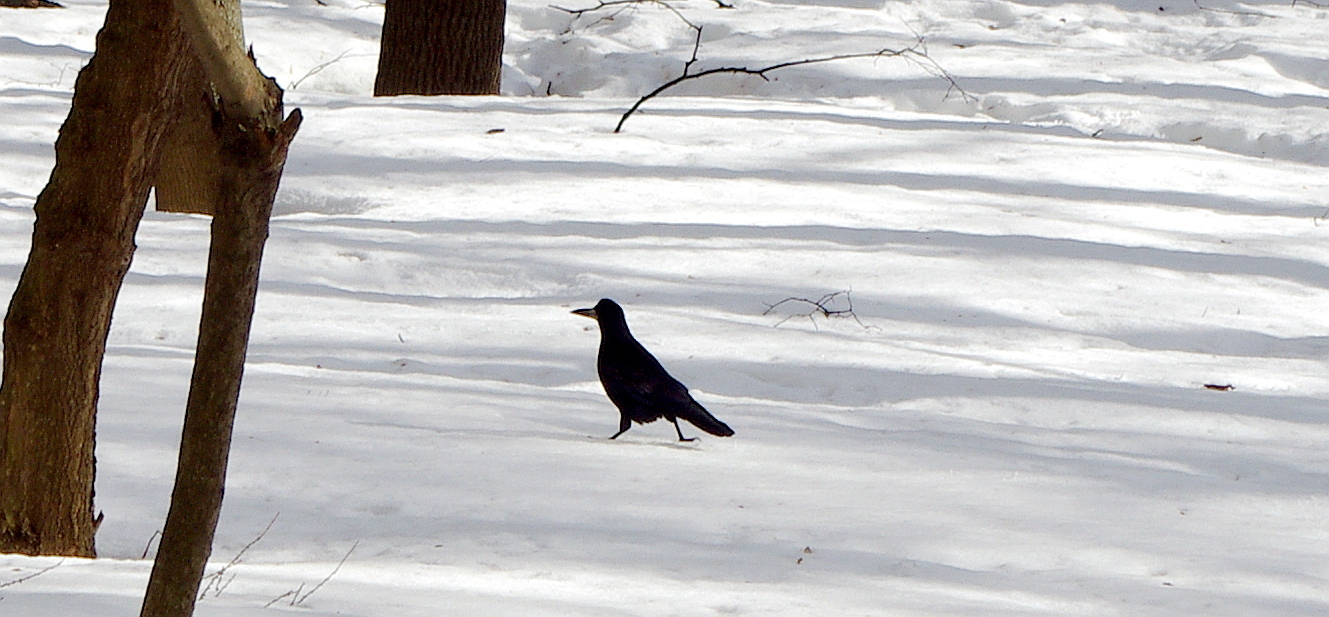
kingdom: Animalia
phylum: Chordata
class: Aves
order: Passeriformes
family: Corvidae
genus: Corvus
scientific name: Corvus frugilegus
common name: Rook
